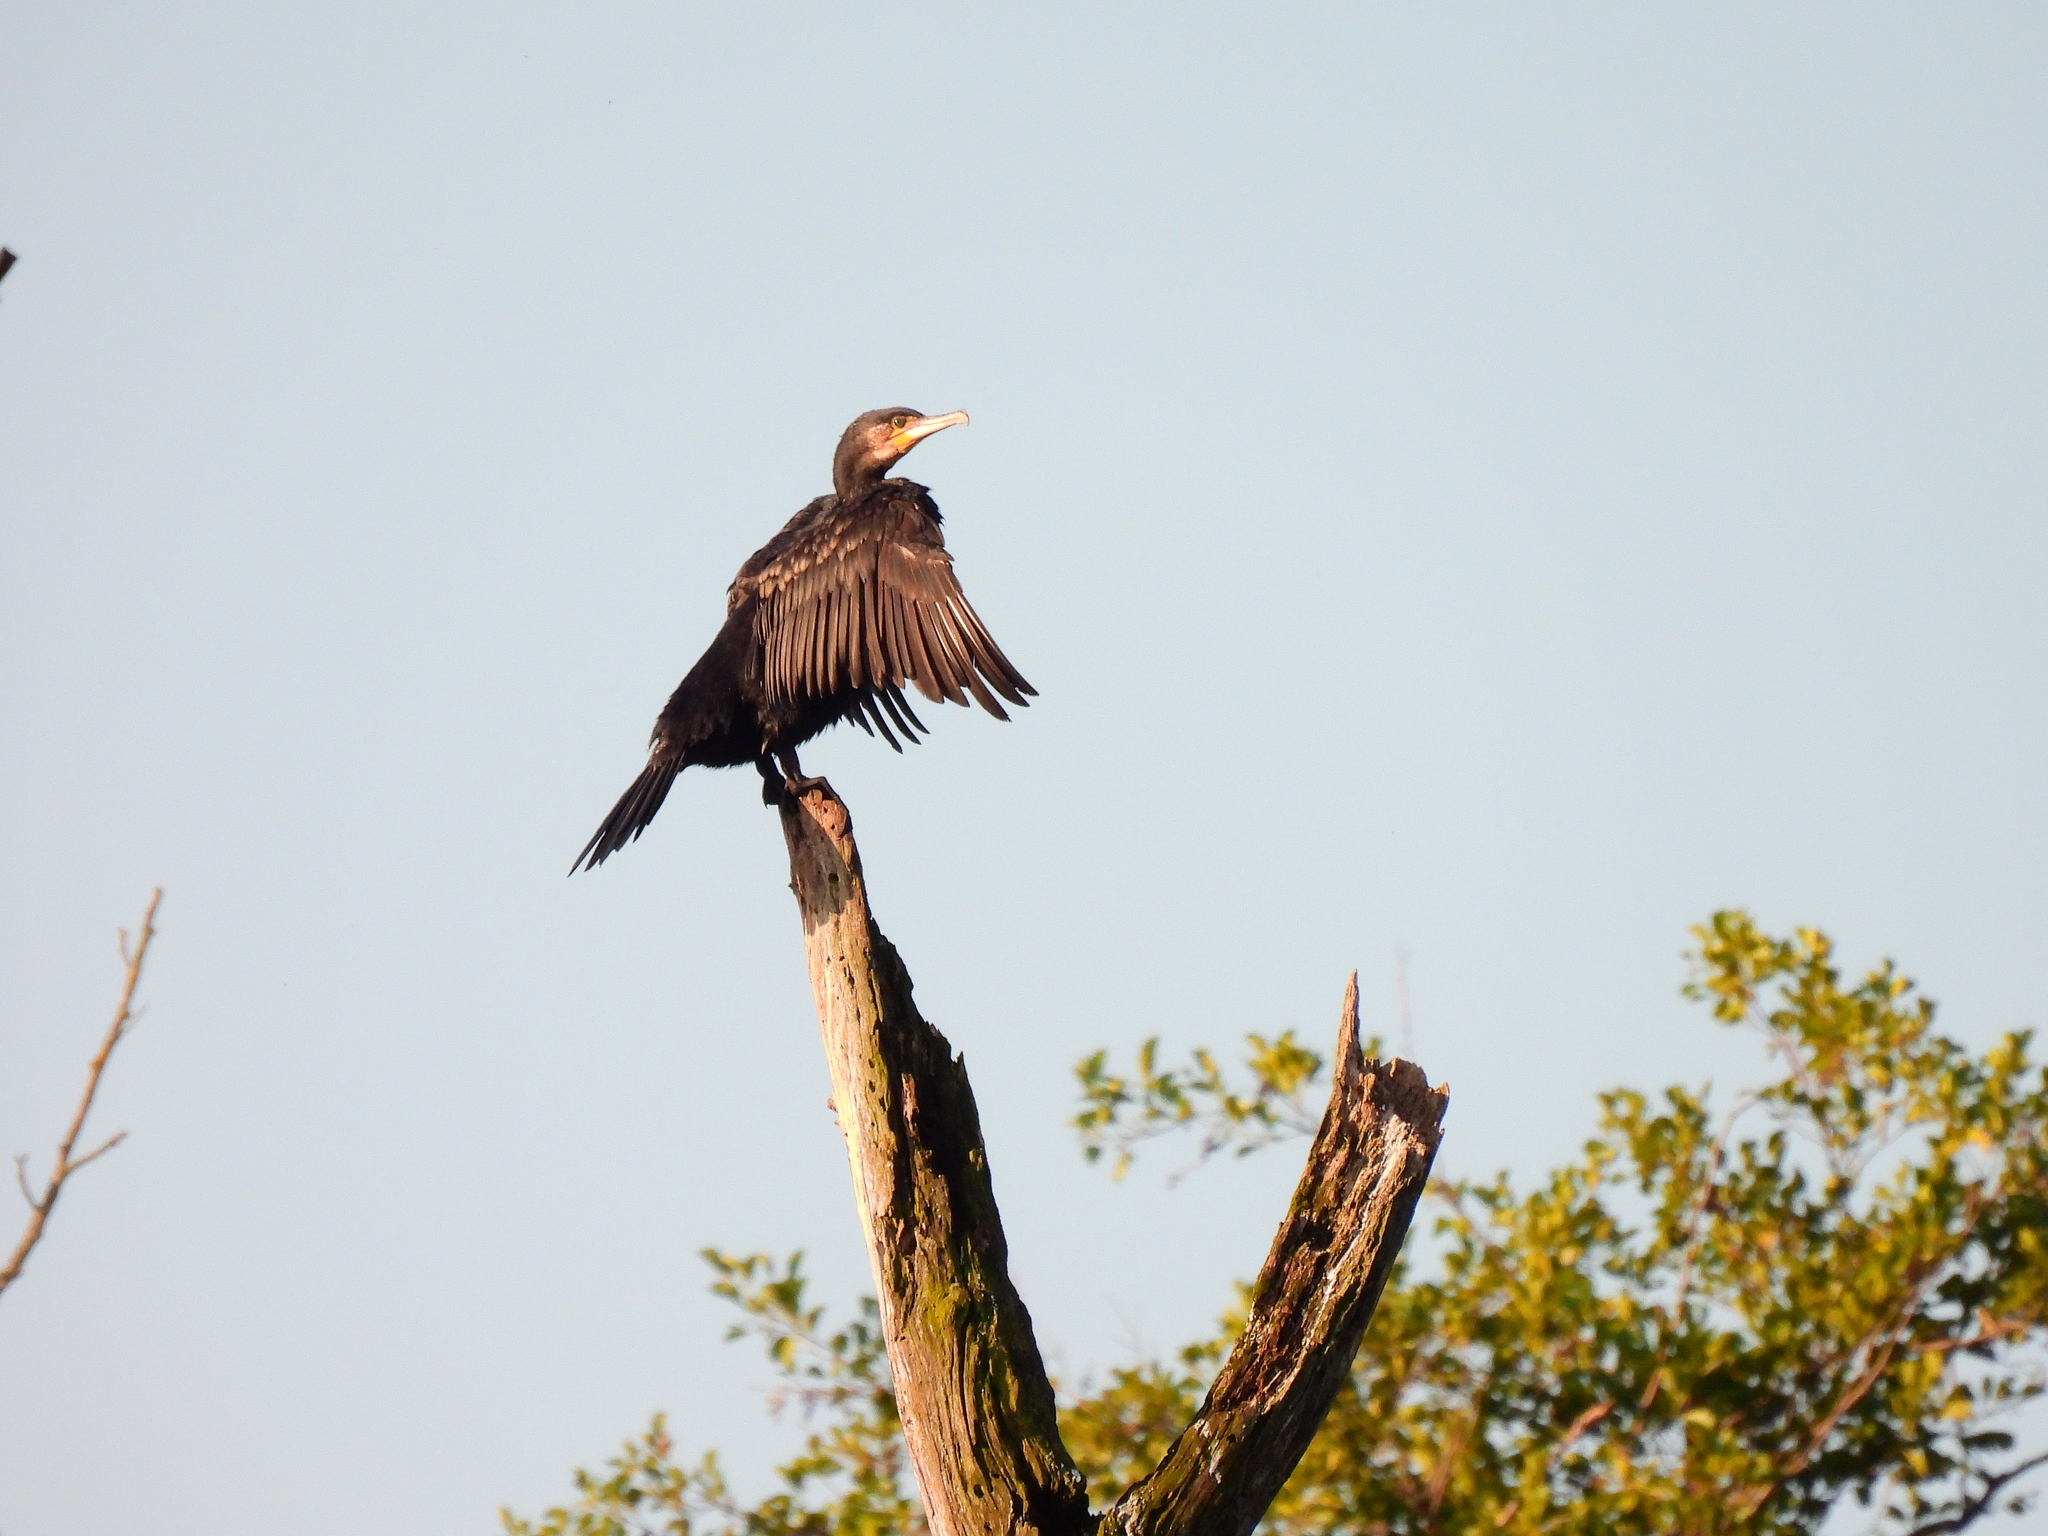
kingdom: Animalia
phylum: Chordata
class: Aves
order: Suliformes
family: Phalacrocoracidae
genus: Phalacrocorax
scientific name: Phalacrocorax carbo
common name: Great cormorant
